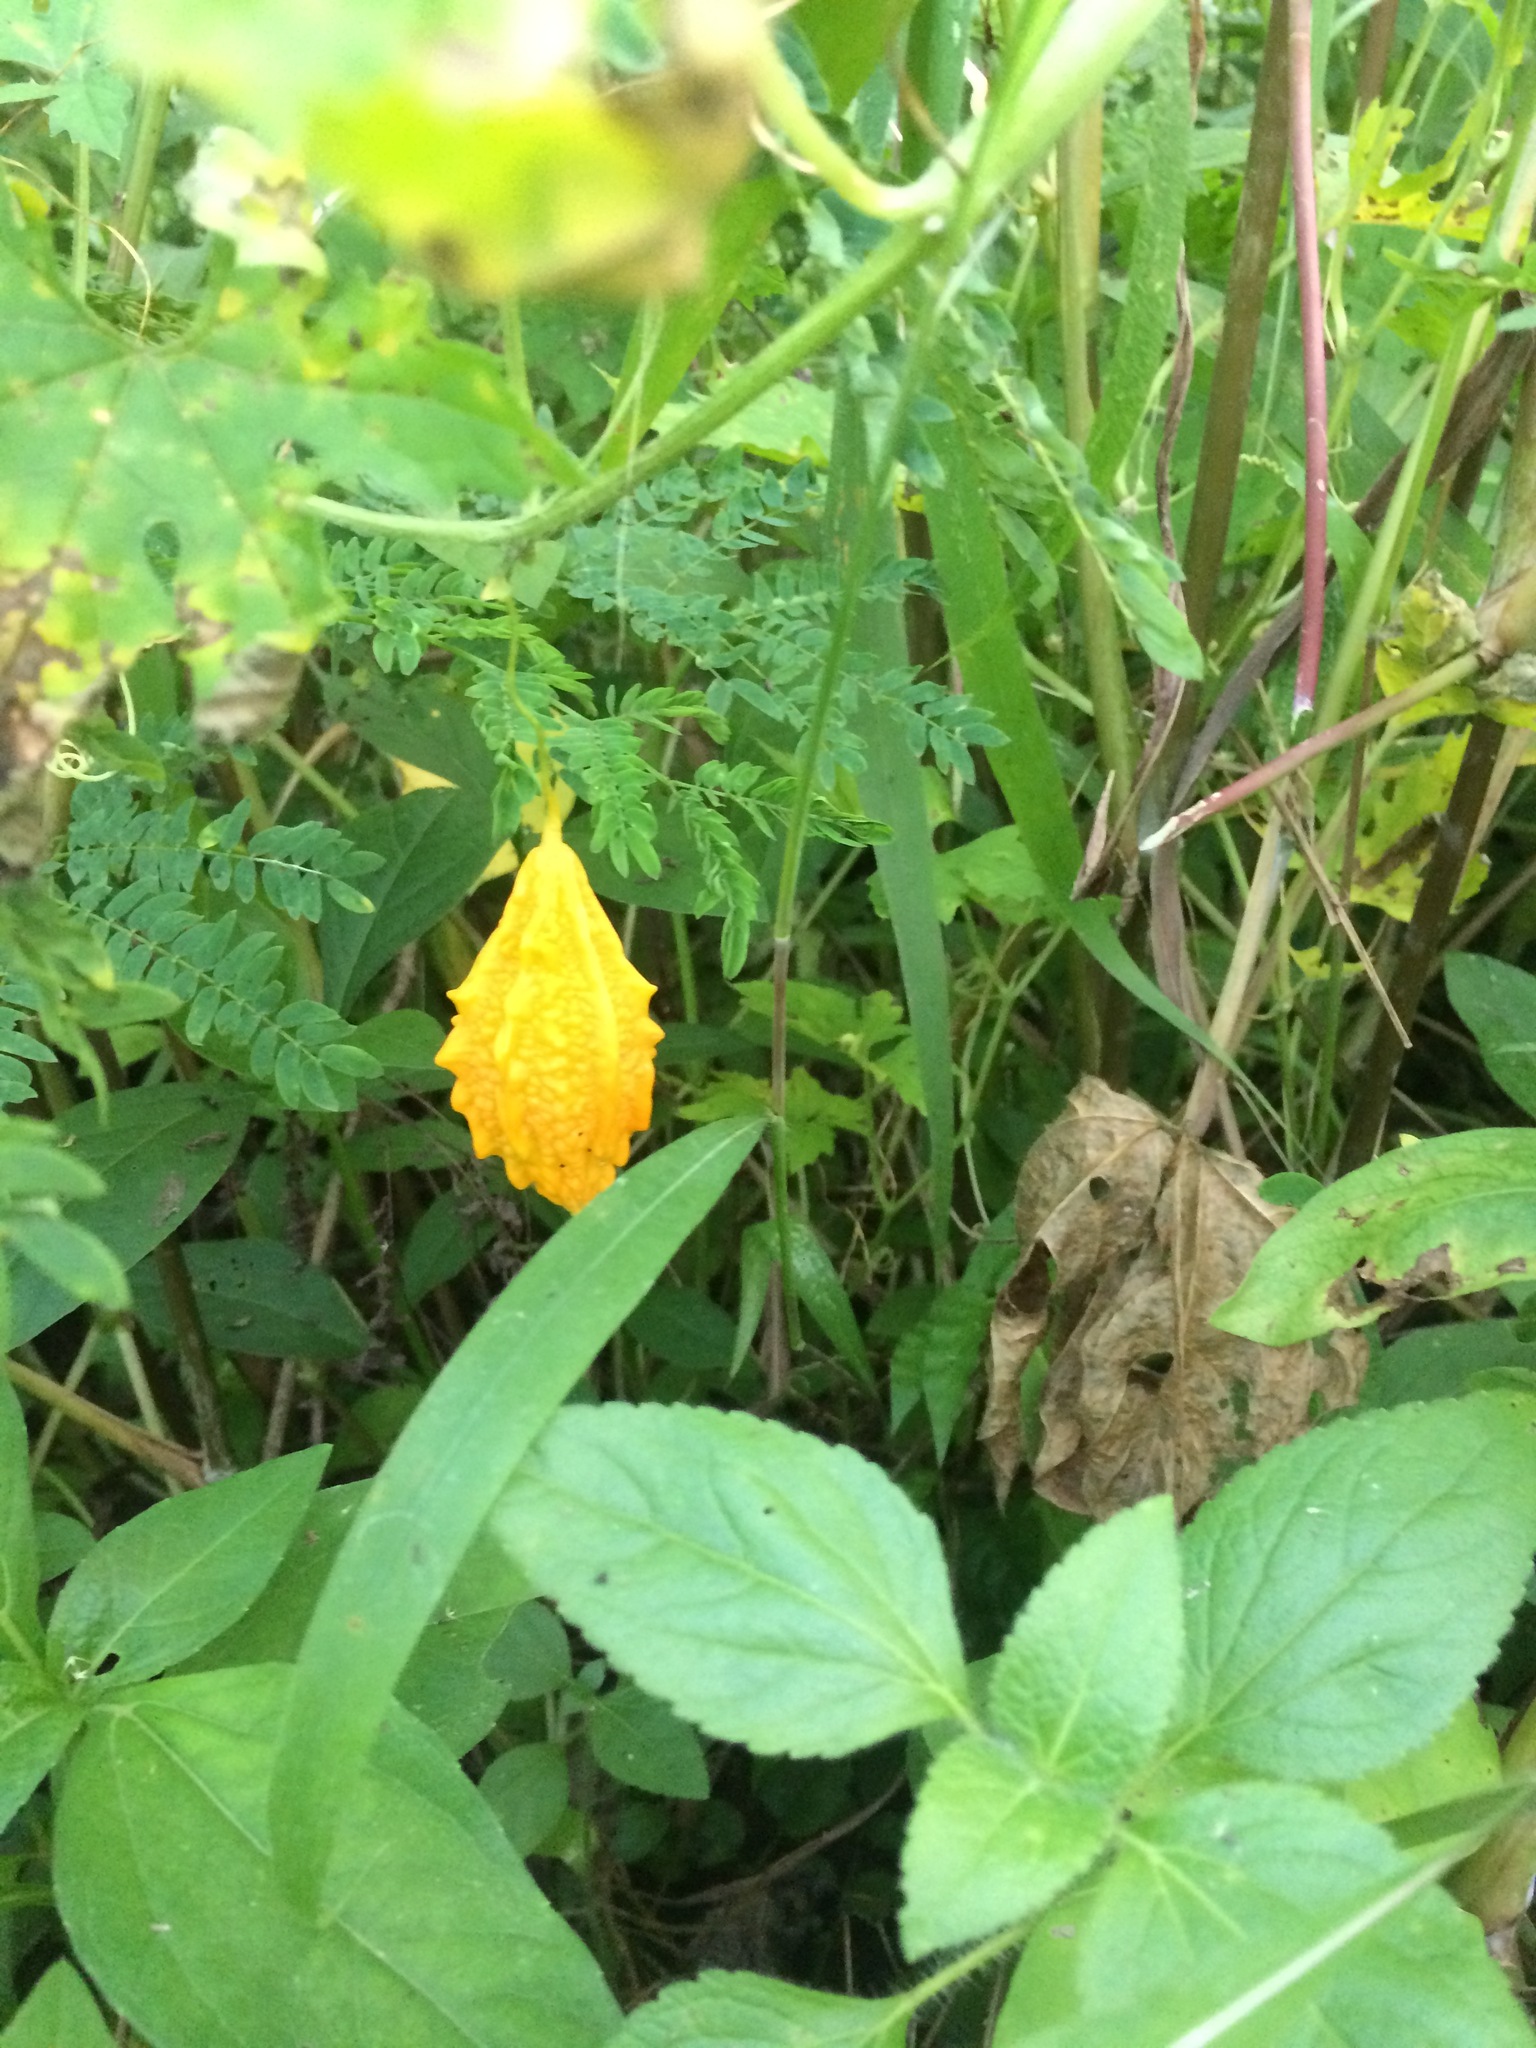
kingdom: Plantae
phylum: Tracheophyta
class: Magnoliopsida
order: Cucurbitales
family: Cucurbitaceae
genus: Momordica
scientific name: Momordica charantia
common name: Balsampear
